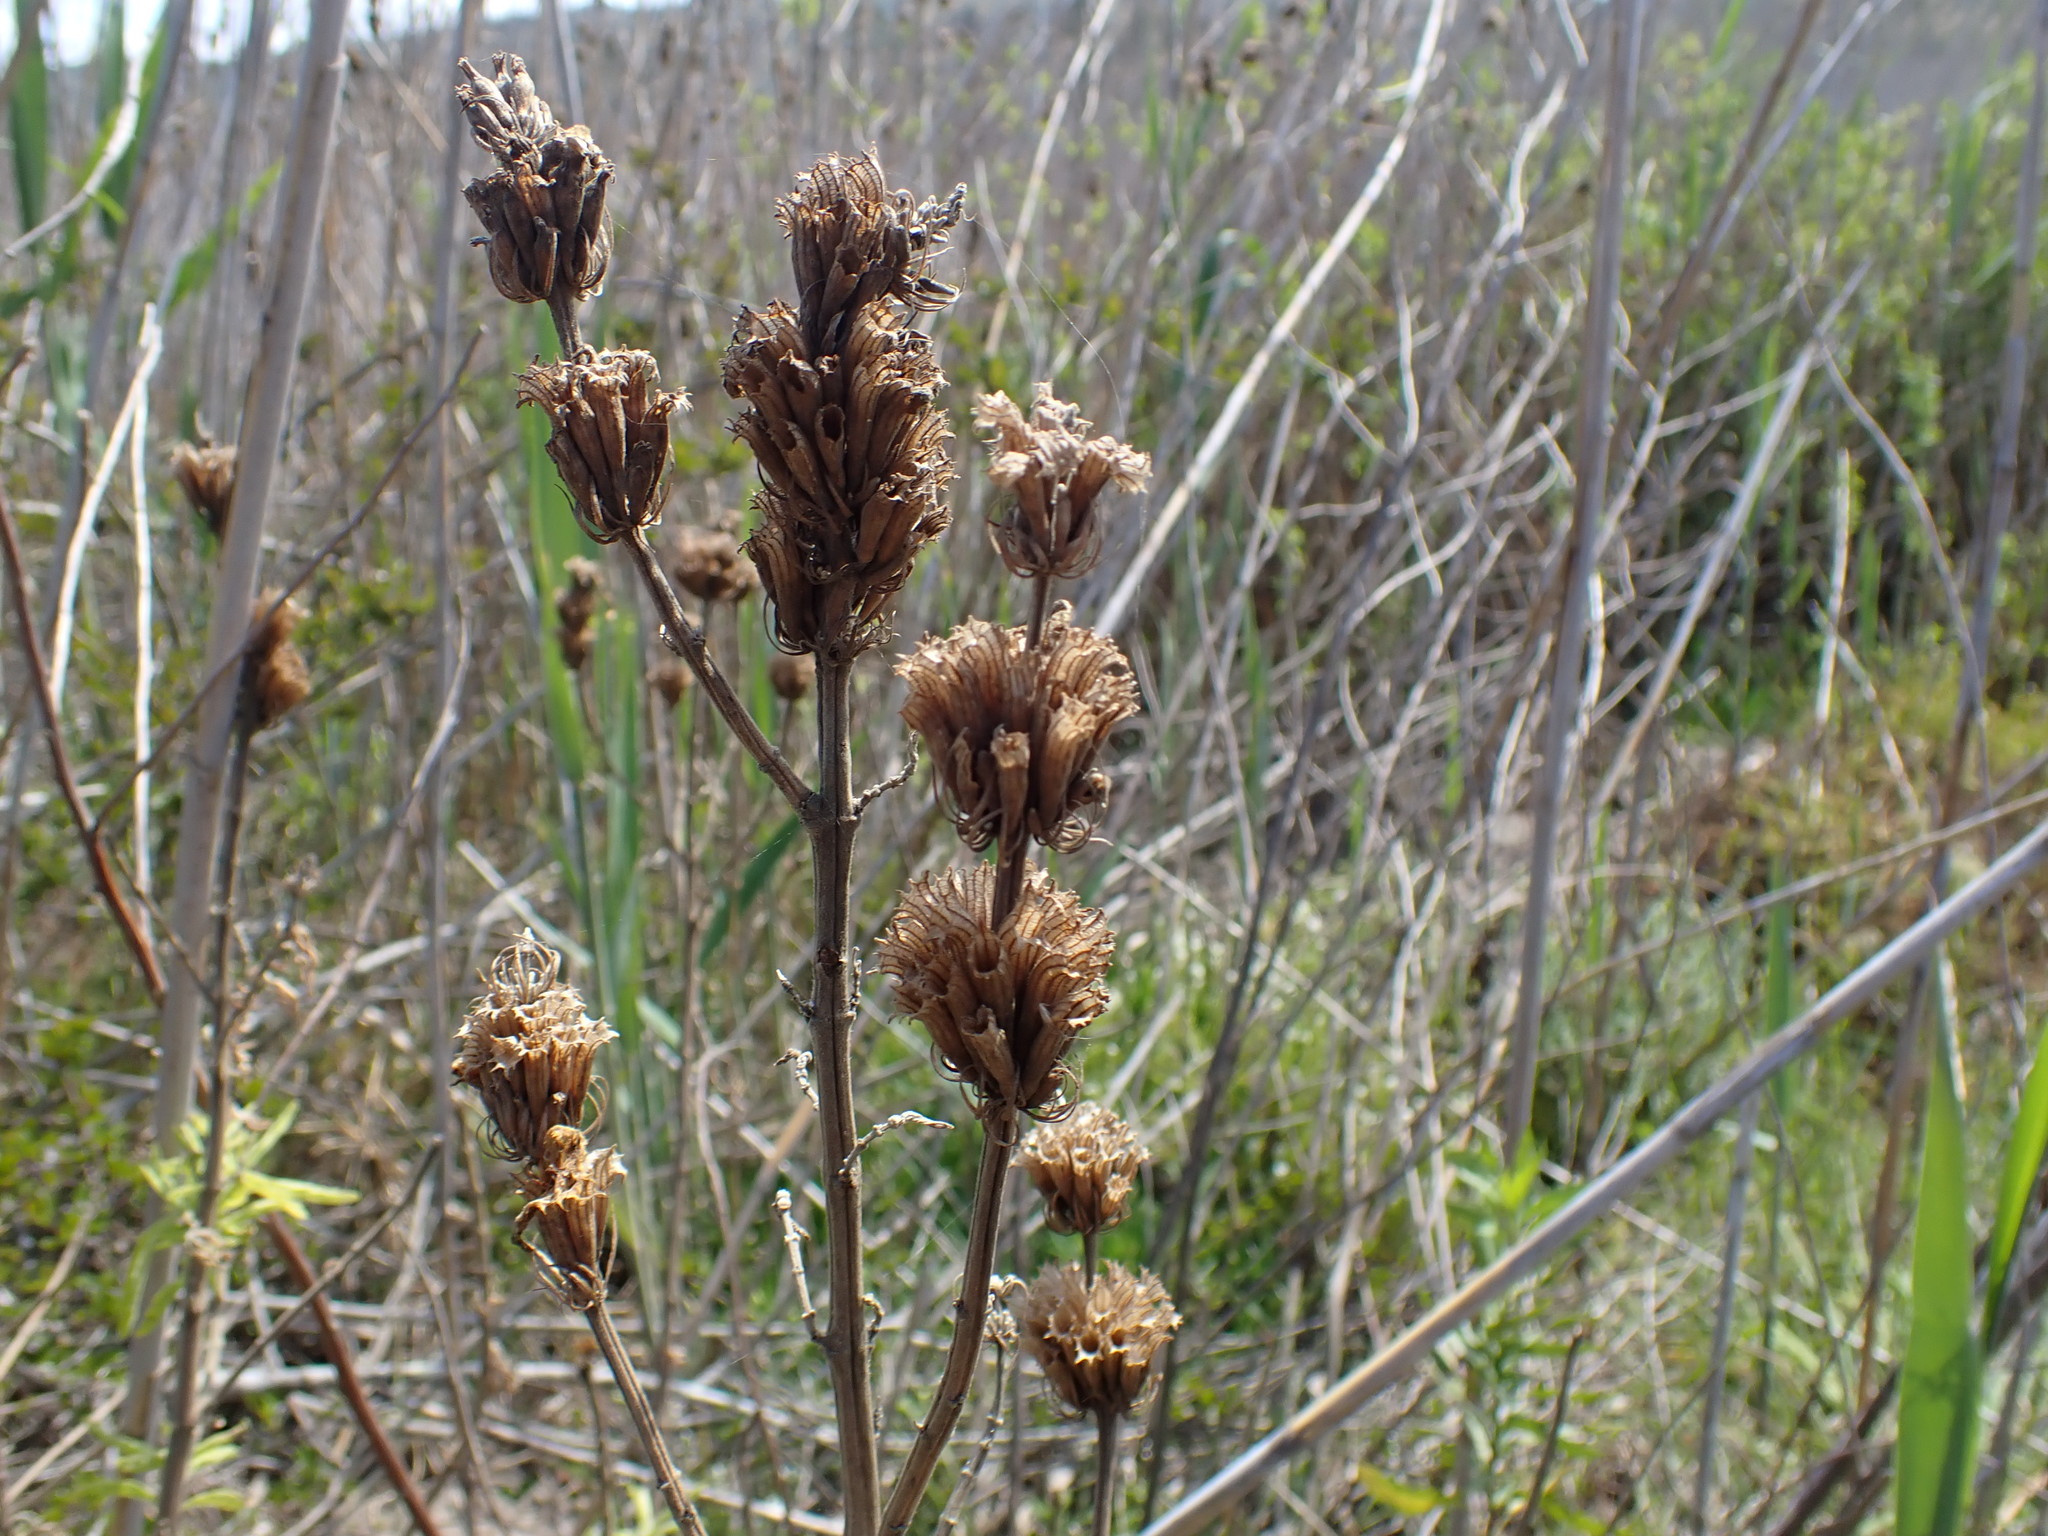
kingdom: Plantae
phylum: Tracheophyta
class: Magnoliopsida
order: Lamiales
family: Lamiaceae
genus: Leonotis
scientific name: Leonotis leonurus
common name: Lion's ear
